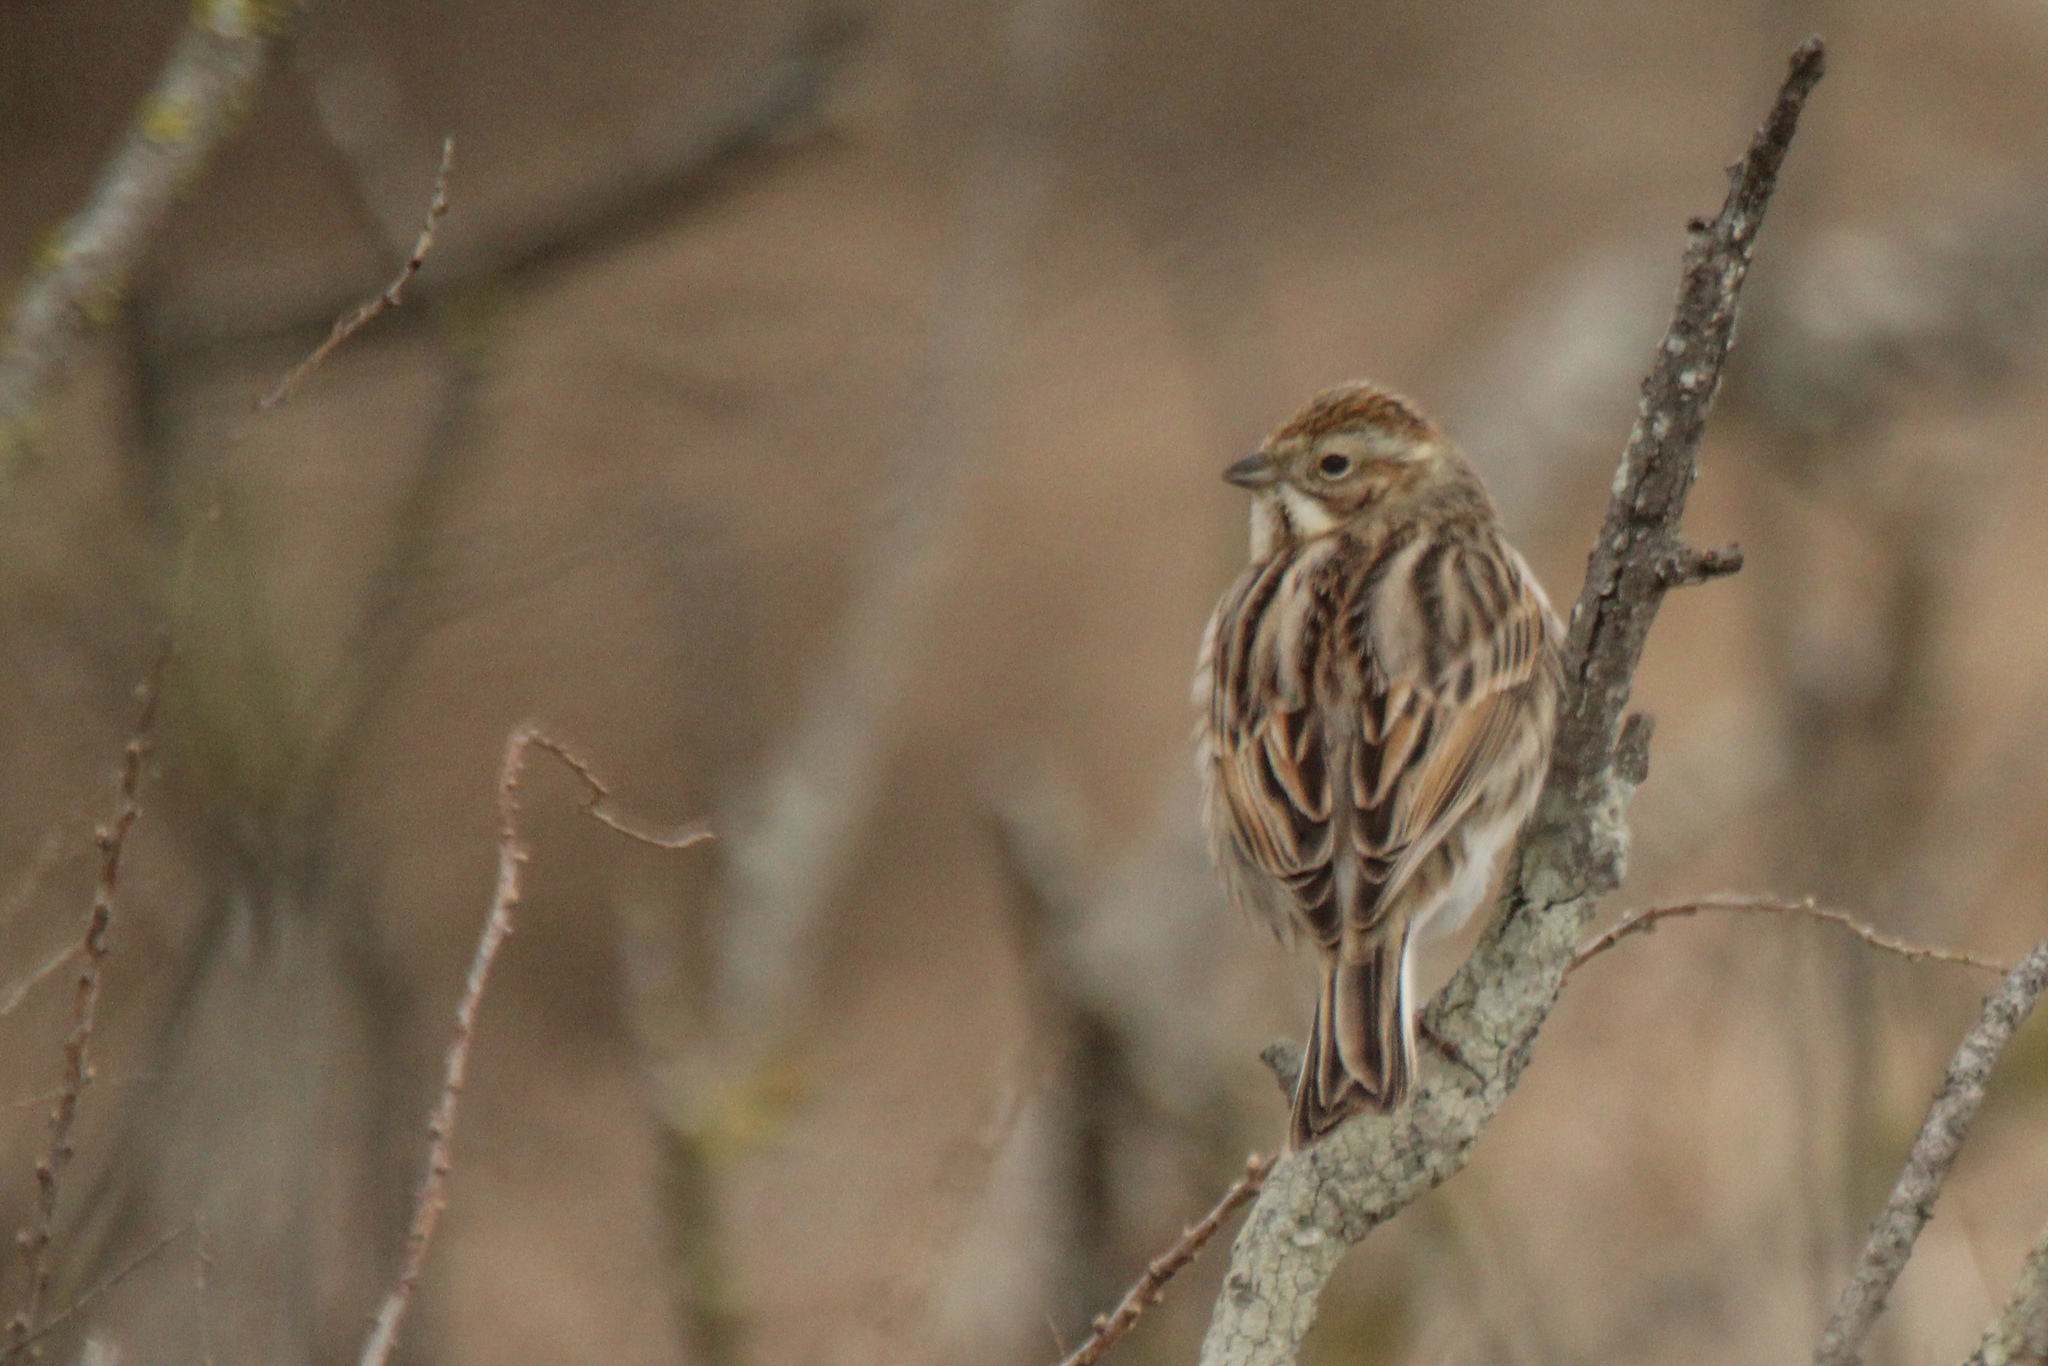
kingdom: Animalia
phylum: Chordata
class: Aves
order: Passeriformes
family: Emberizidae
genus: Emberiza
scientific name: Emberiza schoeniclus
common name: Reed bunting
